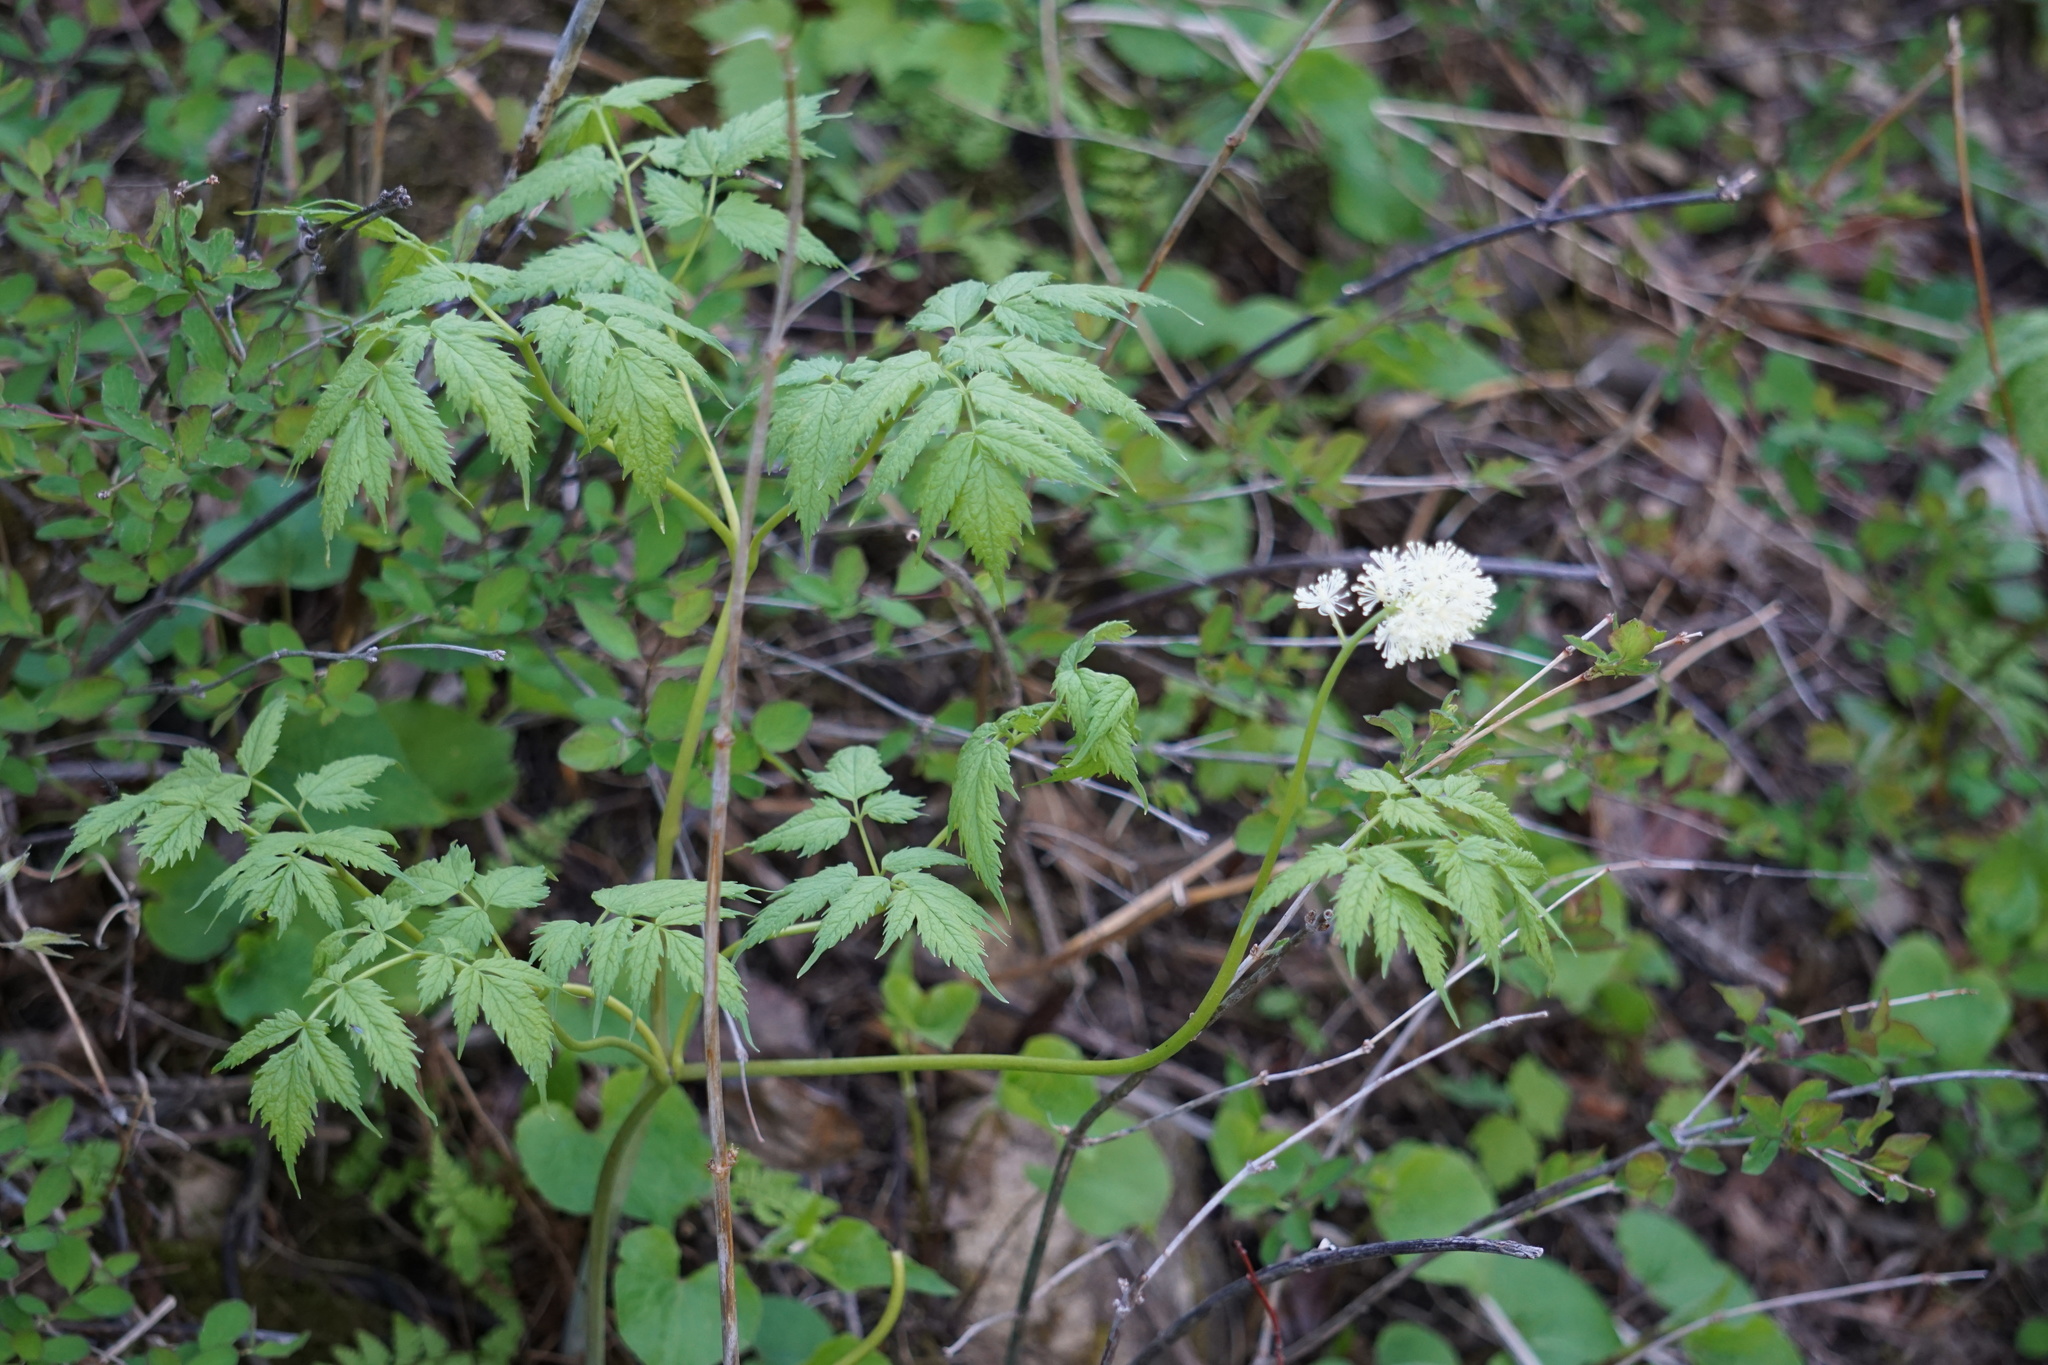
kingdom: Plantae
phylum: Tracheophyta
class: Magnoliopsida
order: Ranunculales
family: Ranunculaceae
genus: Actaea
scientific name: Actaea rubra
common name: Red baneberry
